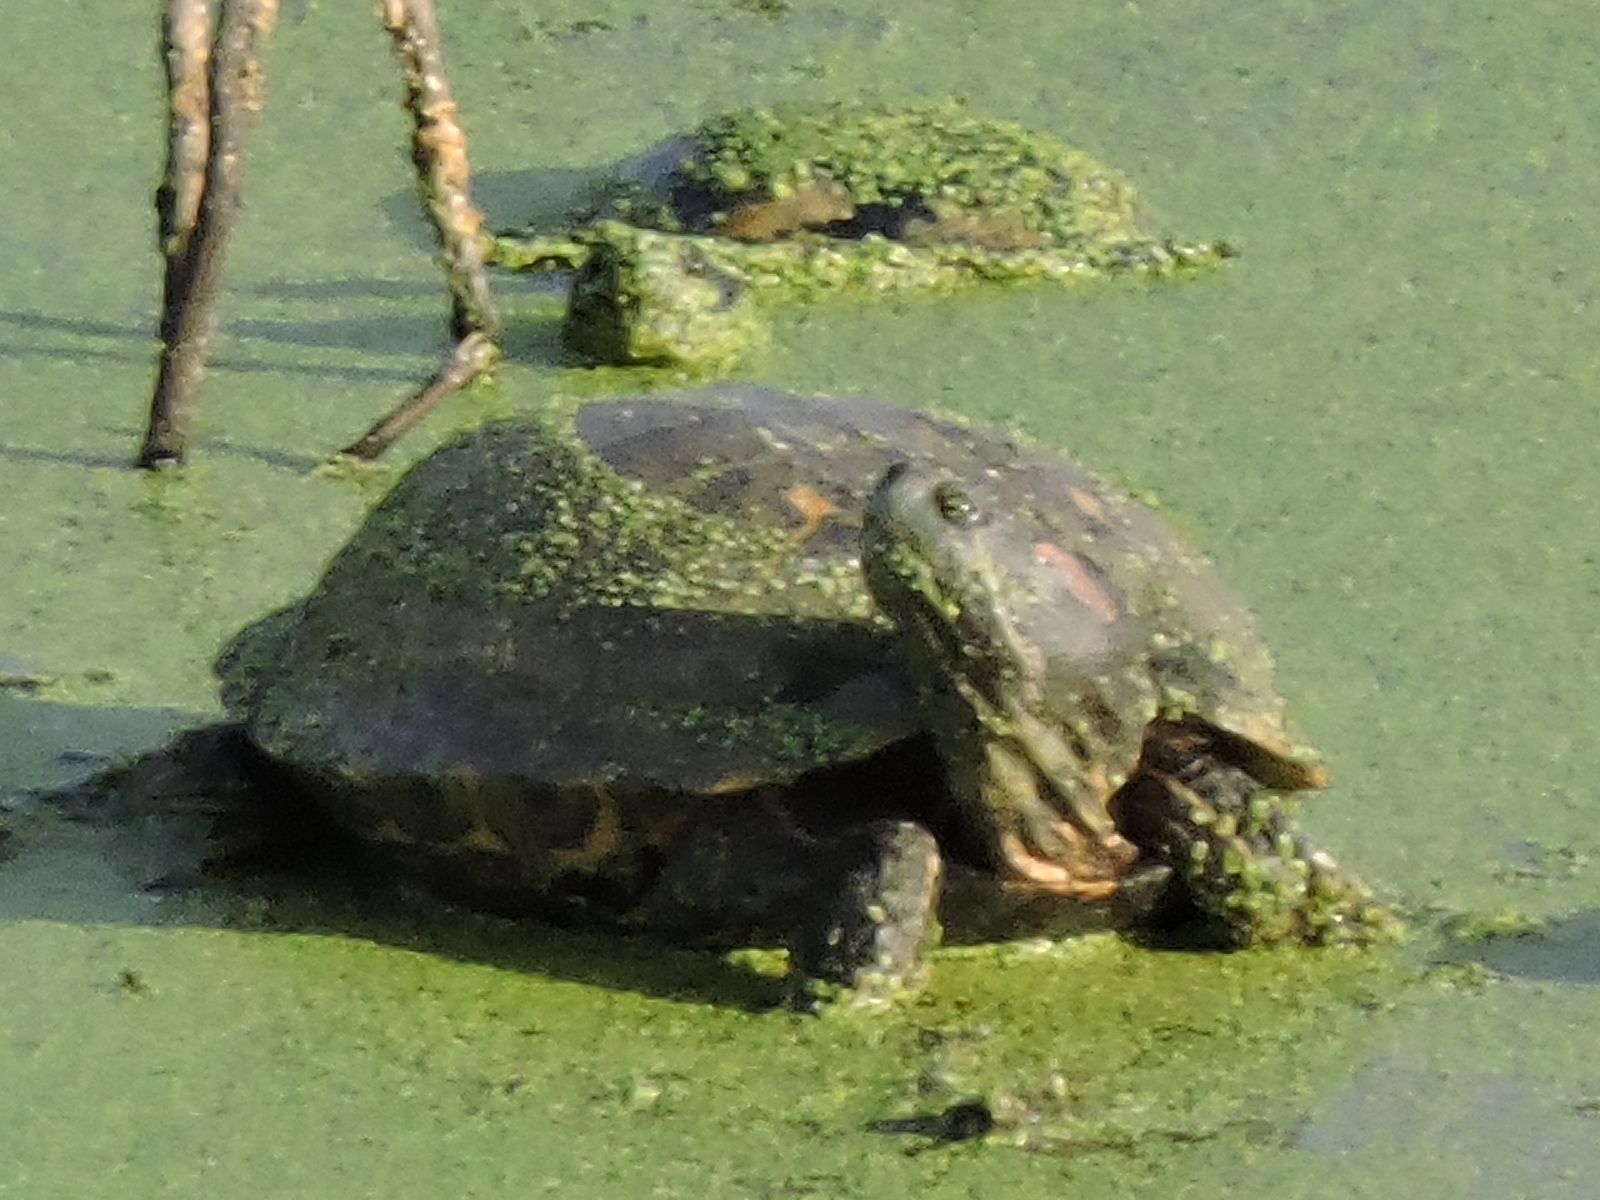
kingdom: Animalia
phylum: Chordata
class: Testudines
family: Emydidae
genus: Trachemys
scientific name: Trachemys scripta
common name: Slider
